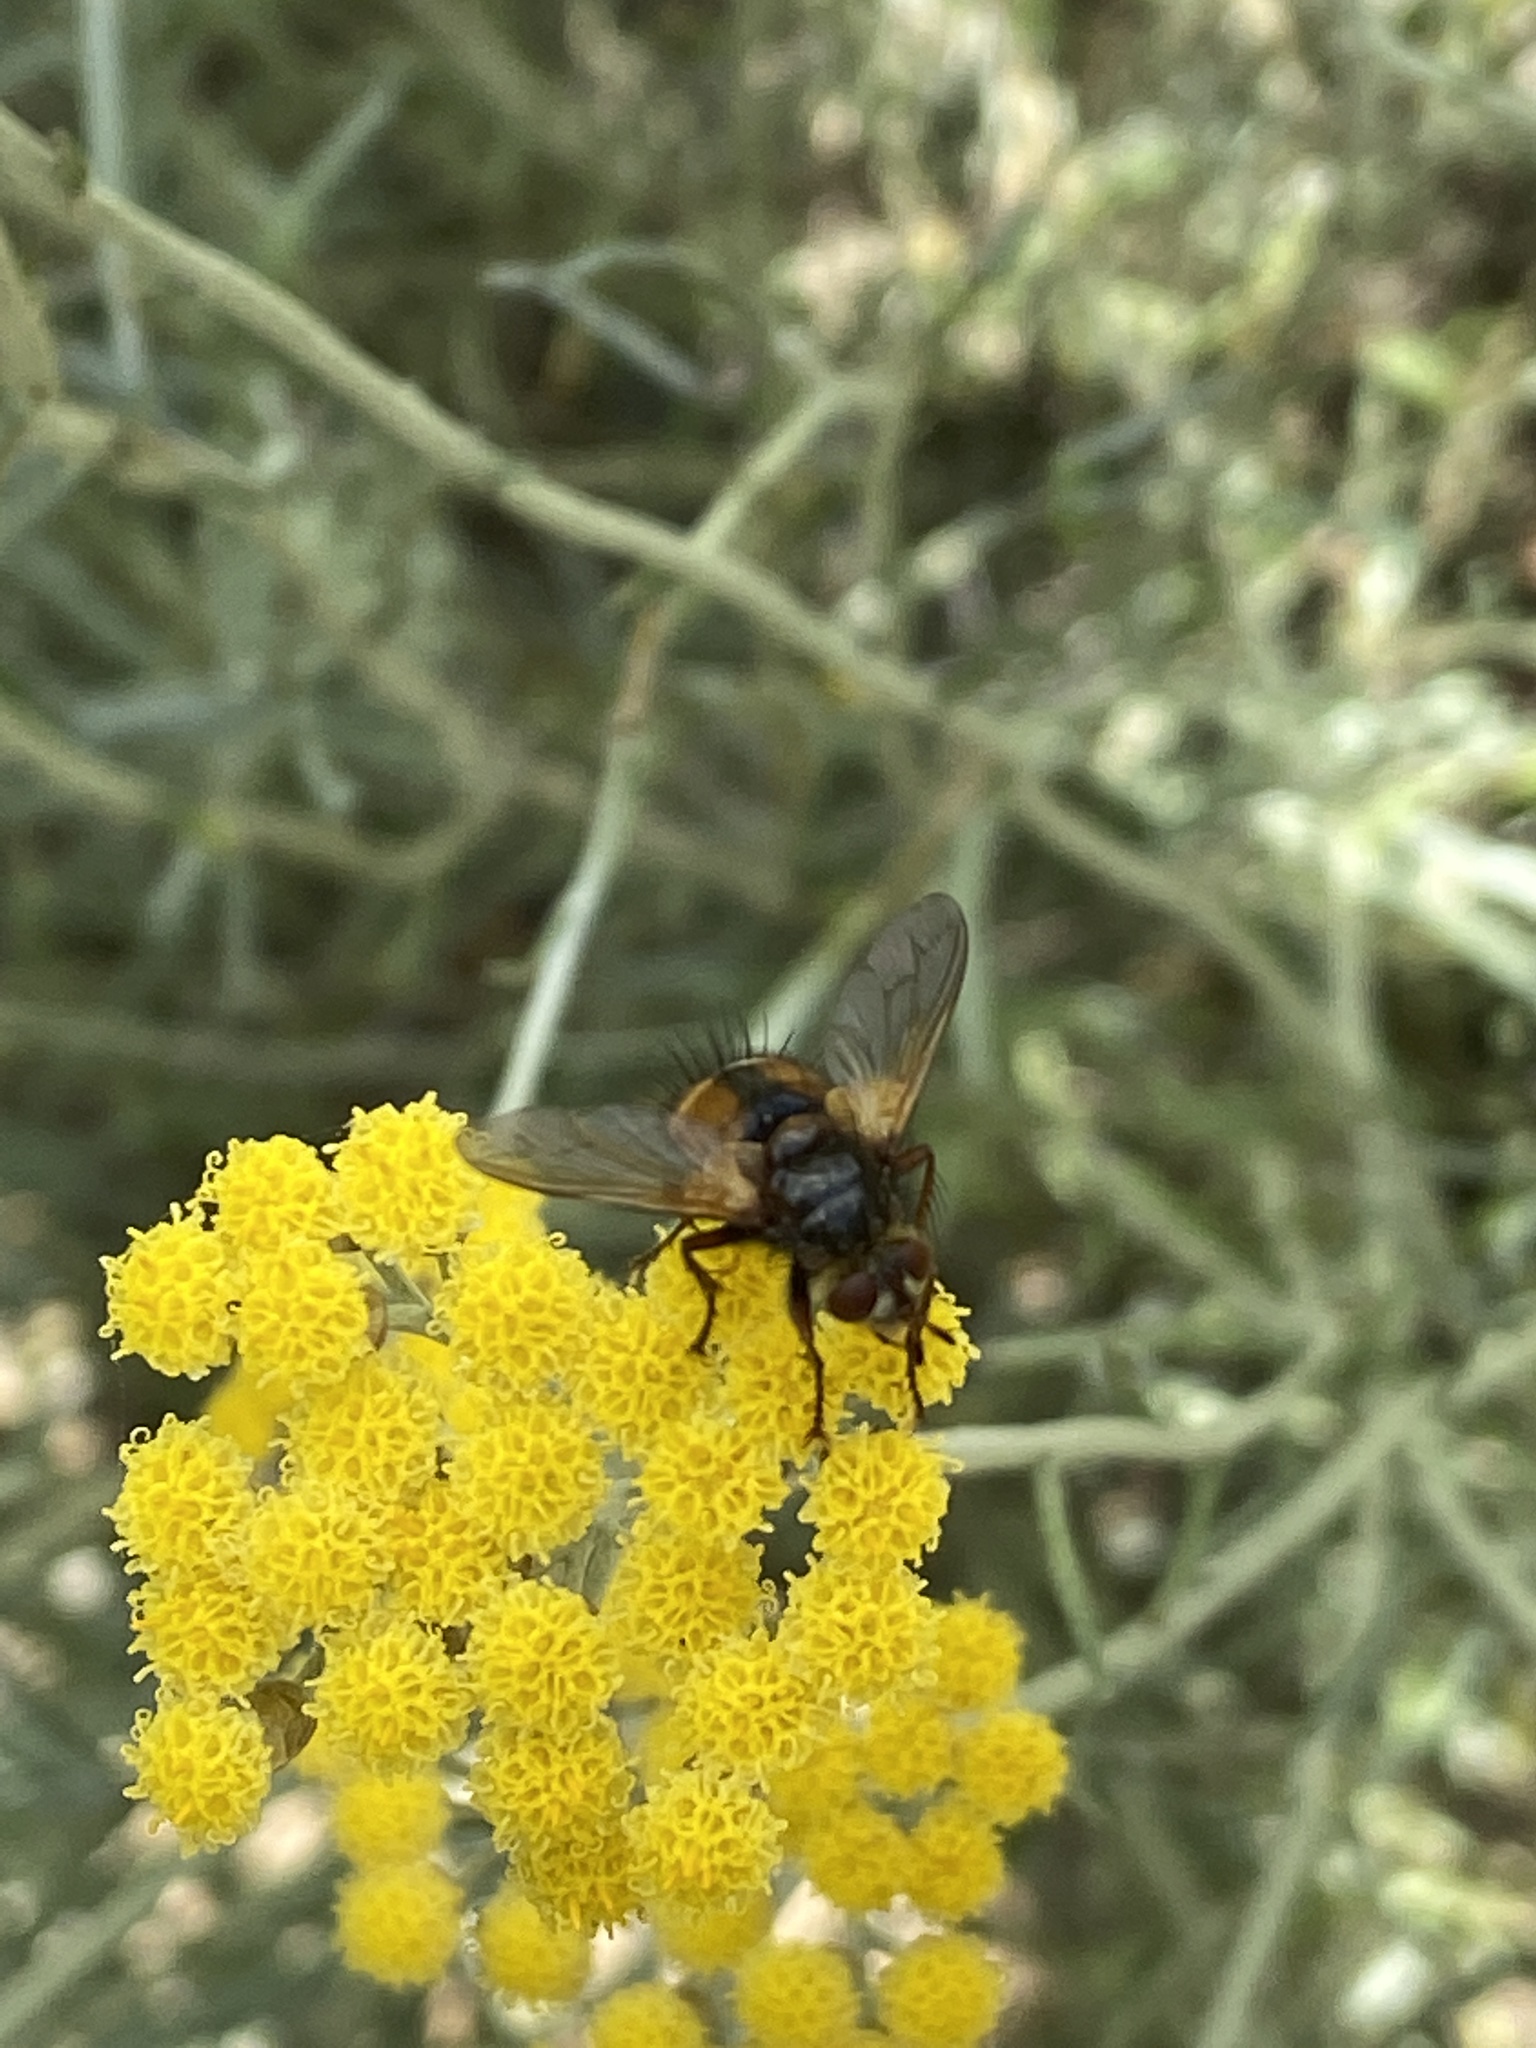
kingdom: Animalia
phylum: Arthropoda
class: Insecta
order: Diptera
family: Tachinidae
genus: Tachina
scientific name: Tachina fera
